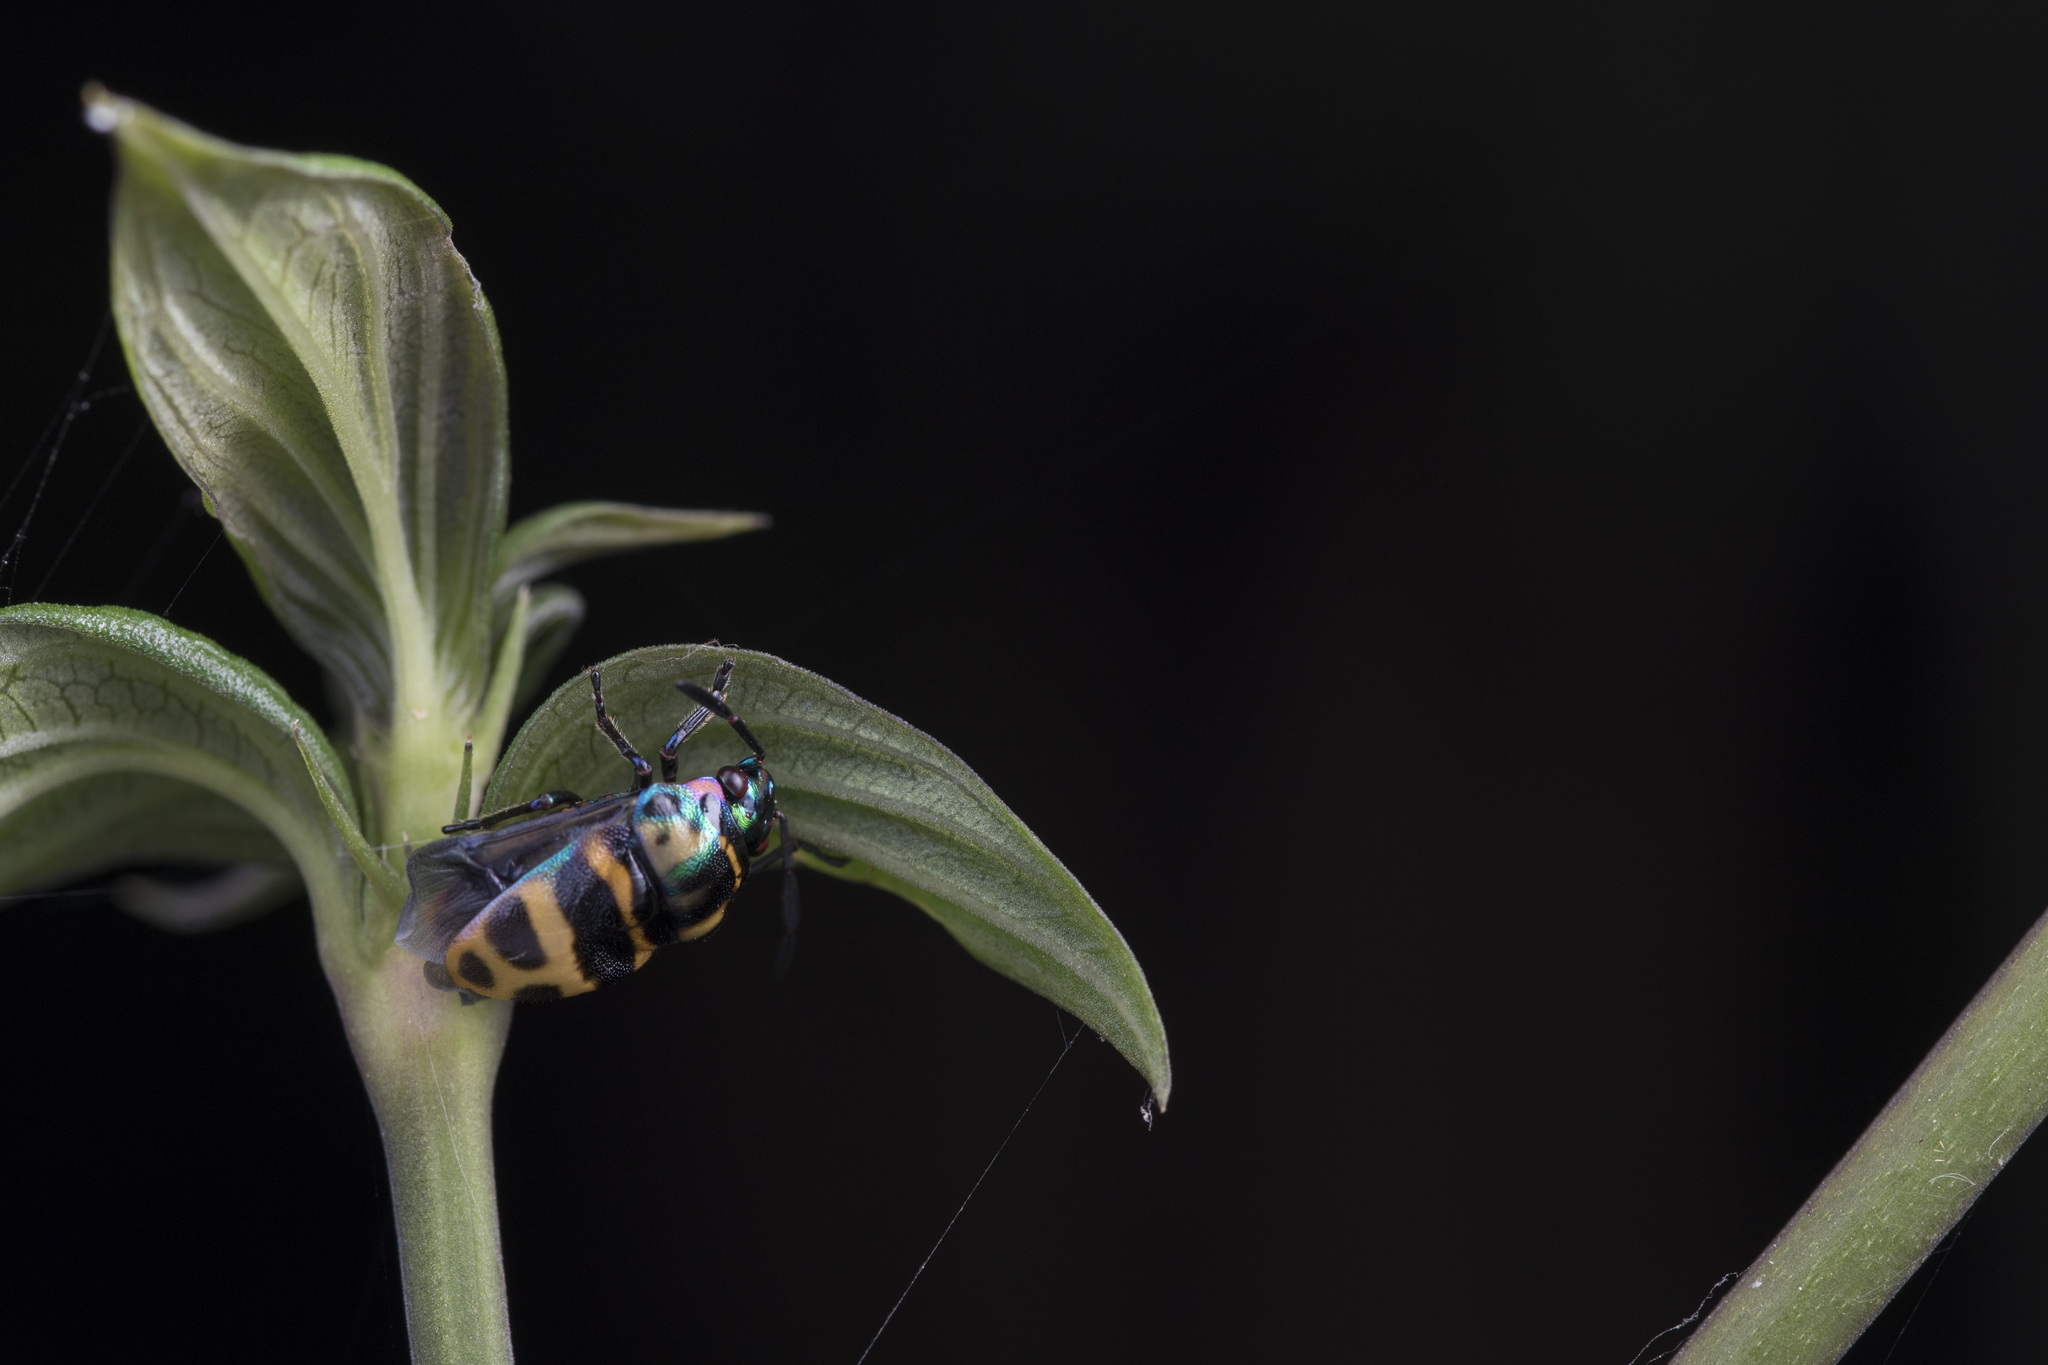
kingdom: Animalia
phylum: Arthropoda
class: Insecta
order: Hemiptera
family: Scutelleridae
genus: Chrysocoris
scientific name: Chrysocoris fascialis
